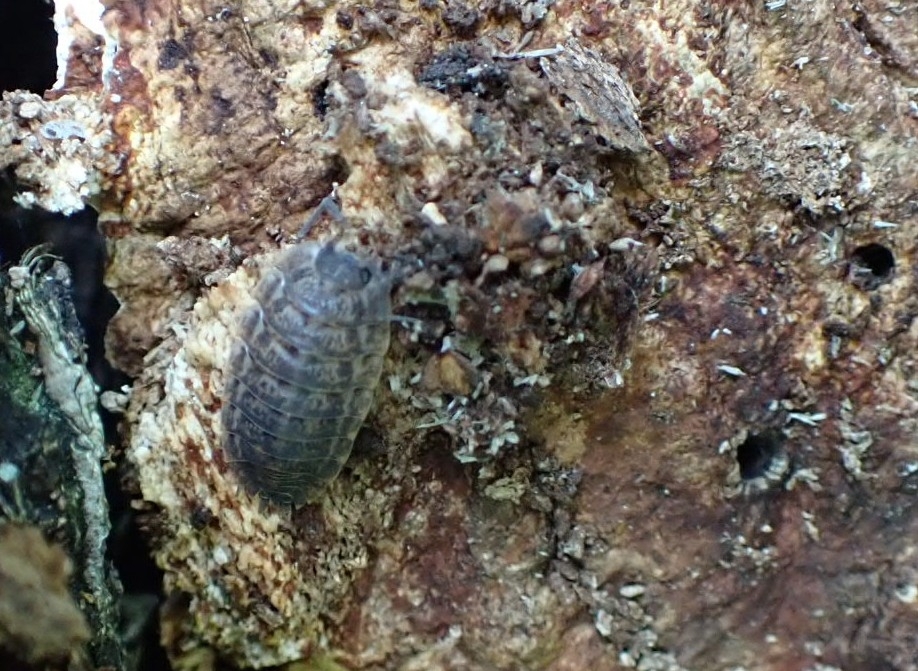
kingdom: Animalia
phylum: Arthropoda
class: Malacostraca
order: Isopoda
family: Trachelipodidae
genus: Trachelipus
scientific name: Trachelipus rathkii
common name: Isopod
